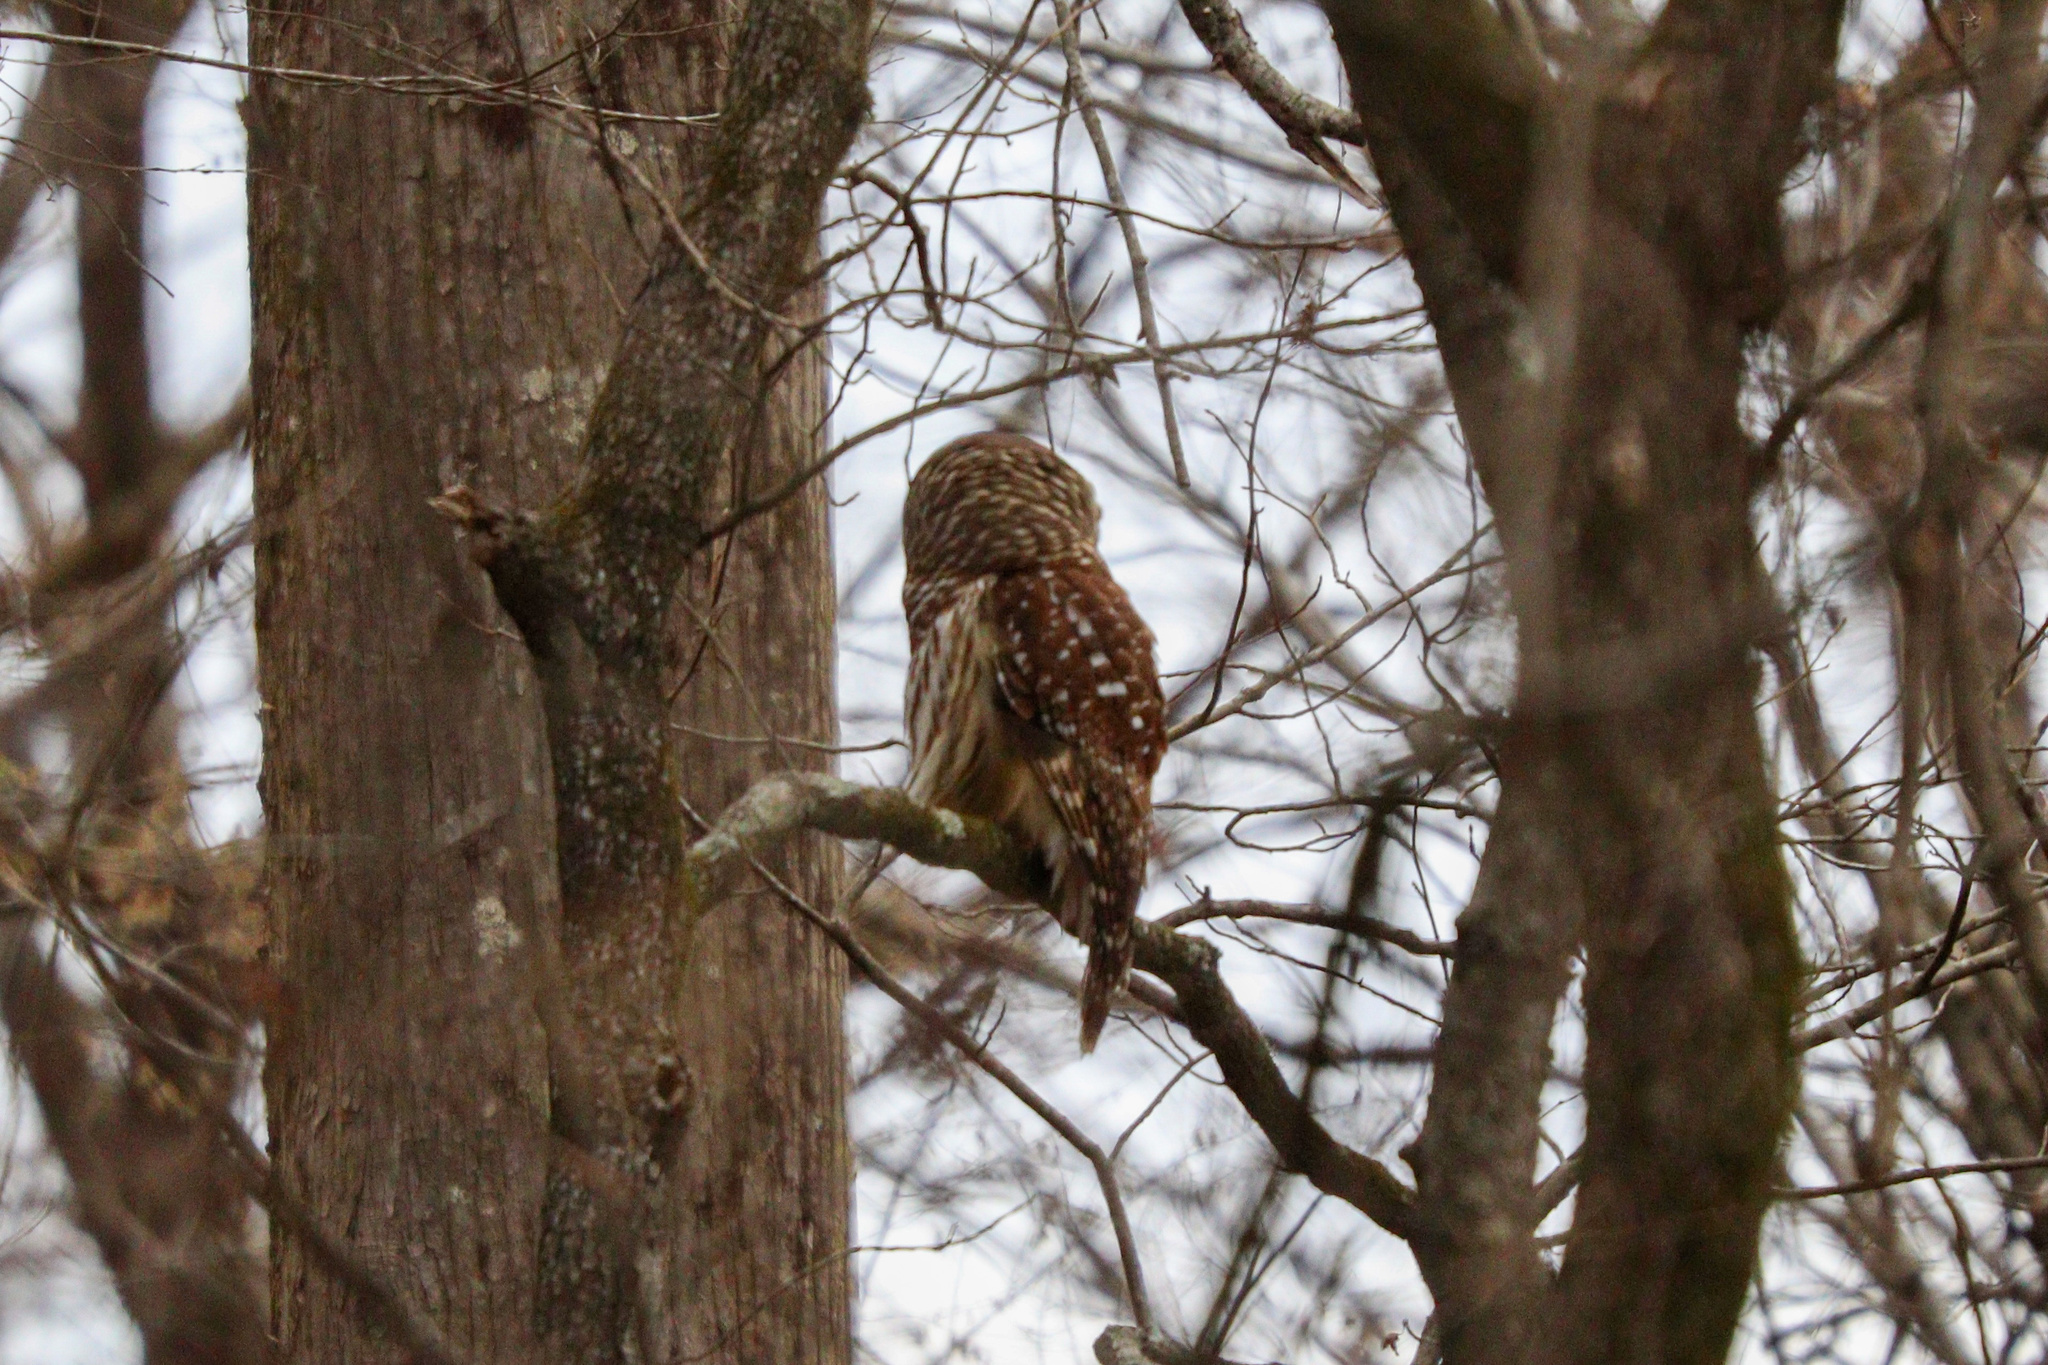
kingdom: Animalia
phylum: Chordata
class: Aves
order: Strigiformes
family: Strigidae
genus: Strix
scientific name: Strix varia
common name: Barred owl
